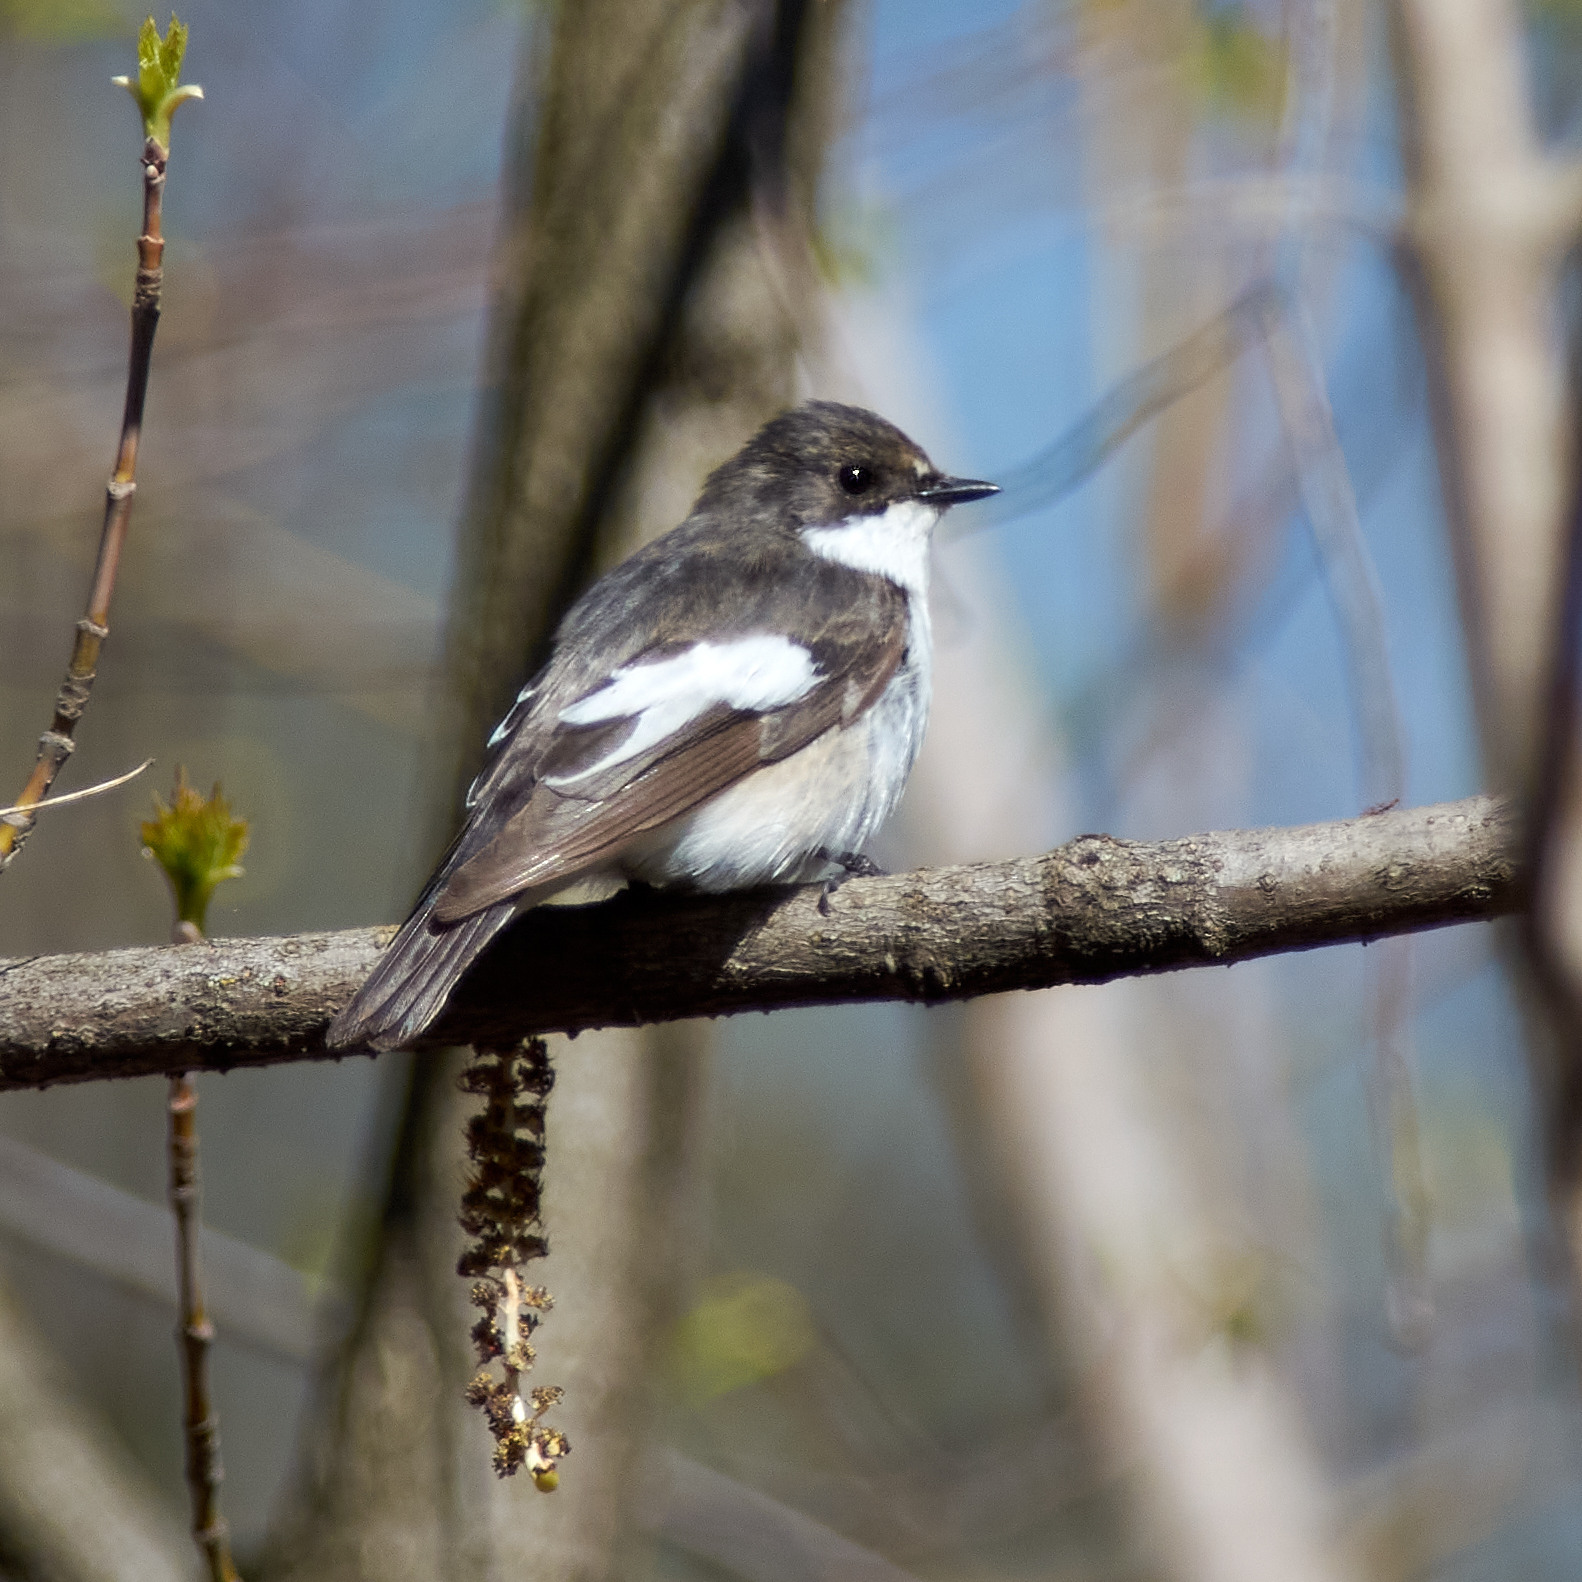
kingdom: Animalia
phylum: Chordata
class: Aves
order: Passeriformes
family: Muscicapidae
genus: Ficedula
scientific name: Ficedula hypoleuca
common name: European pied flycatcher
